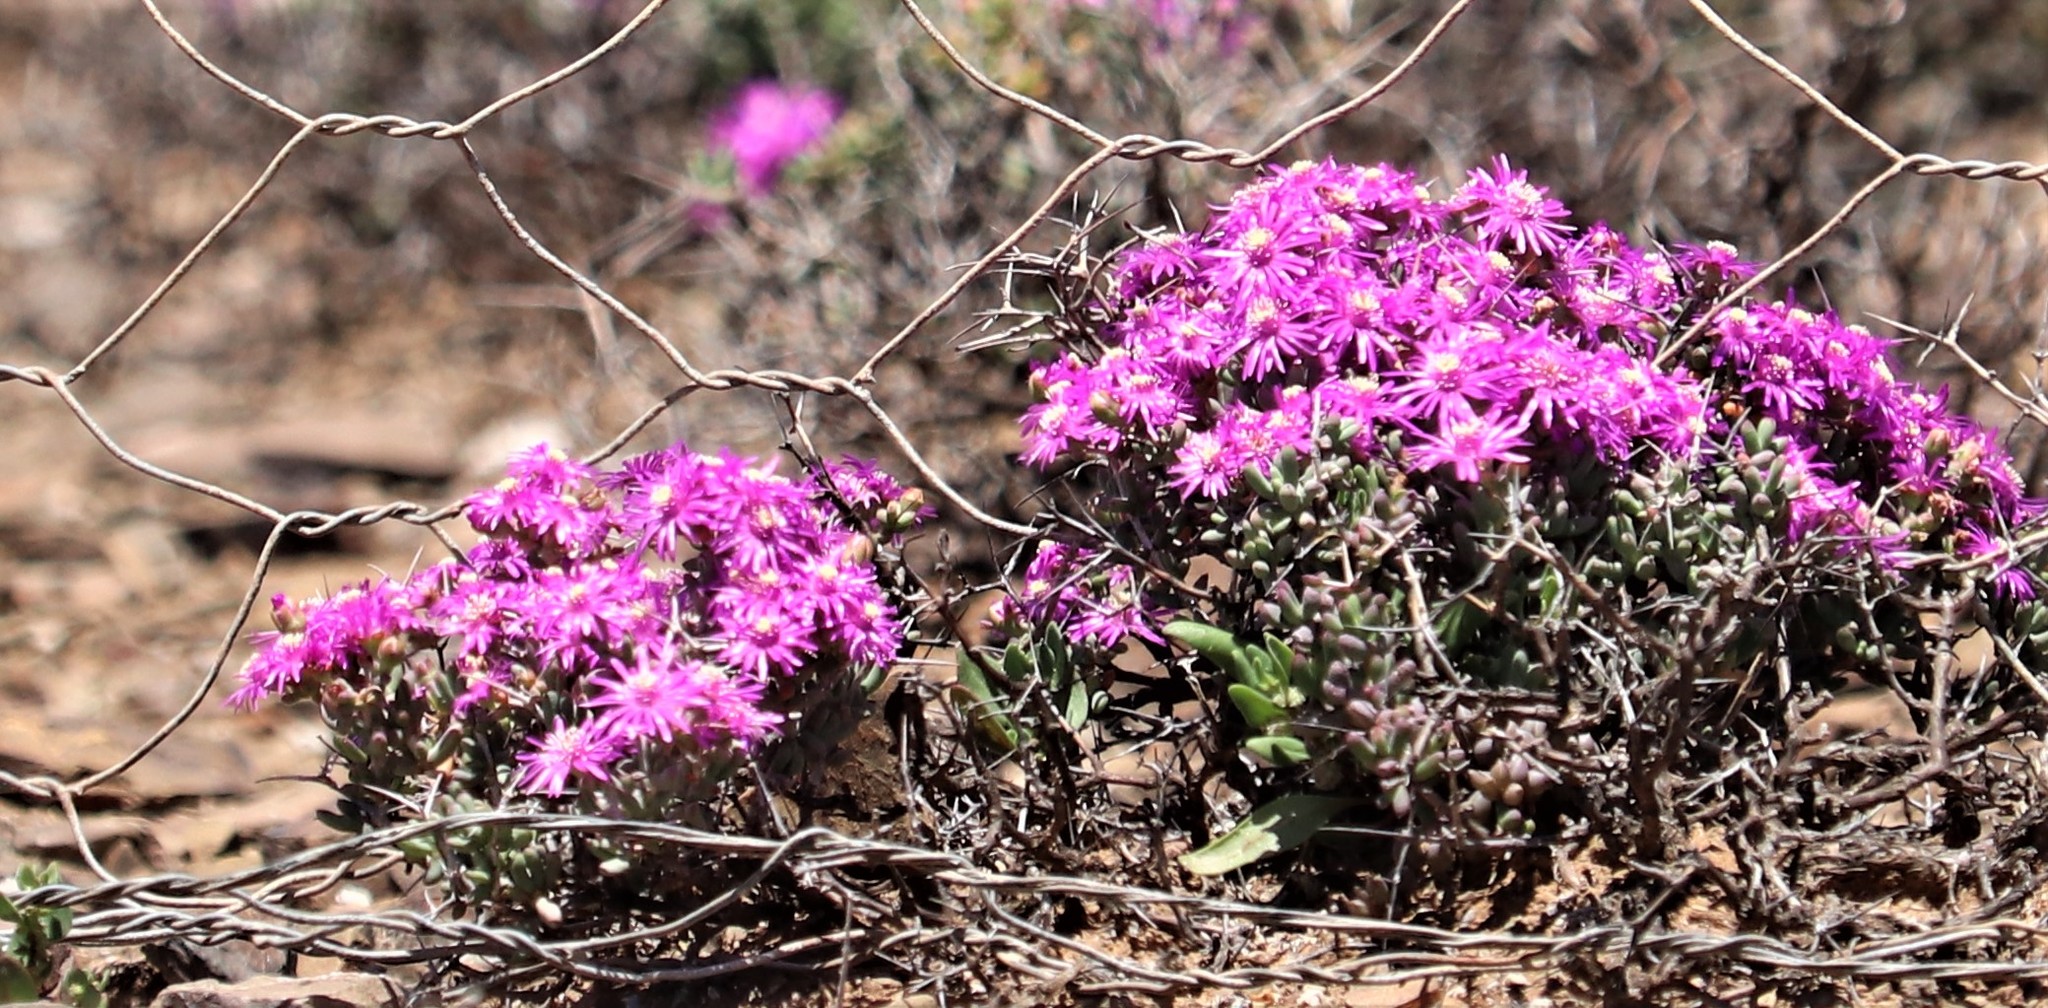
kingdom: Plantae
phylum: Tracheophyta
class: Magnoliopsida
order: Caryophyllales
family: Aizoaceae
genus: Ruschia
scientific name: Ruschia intricata
